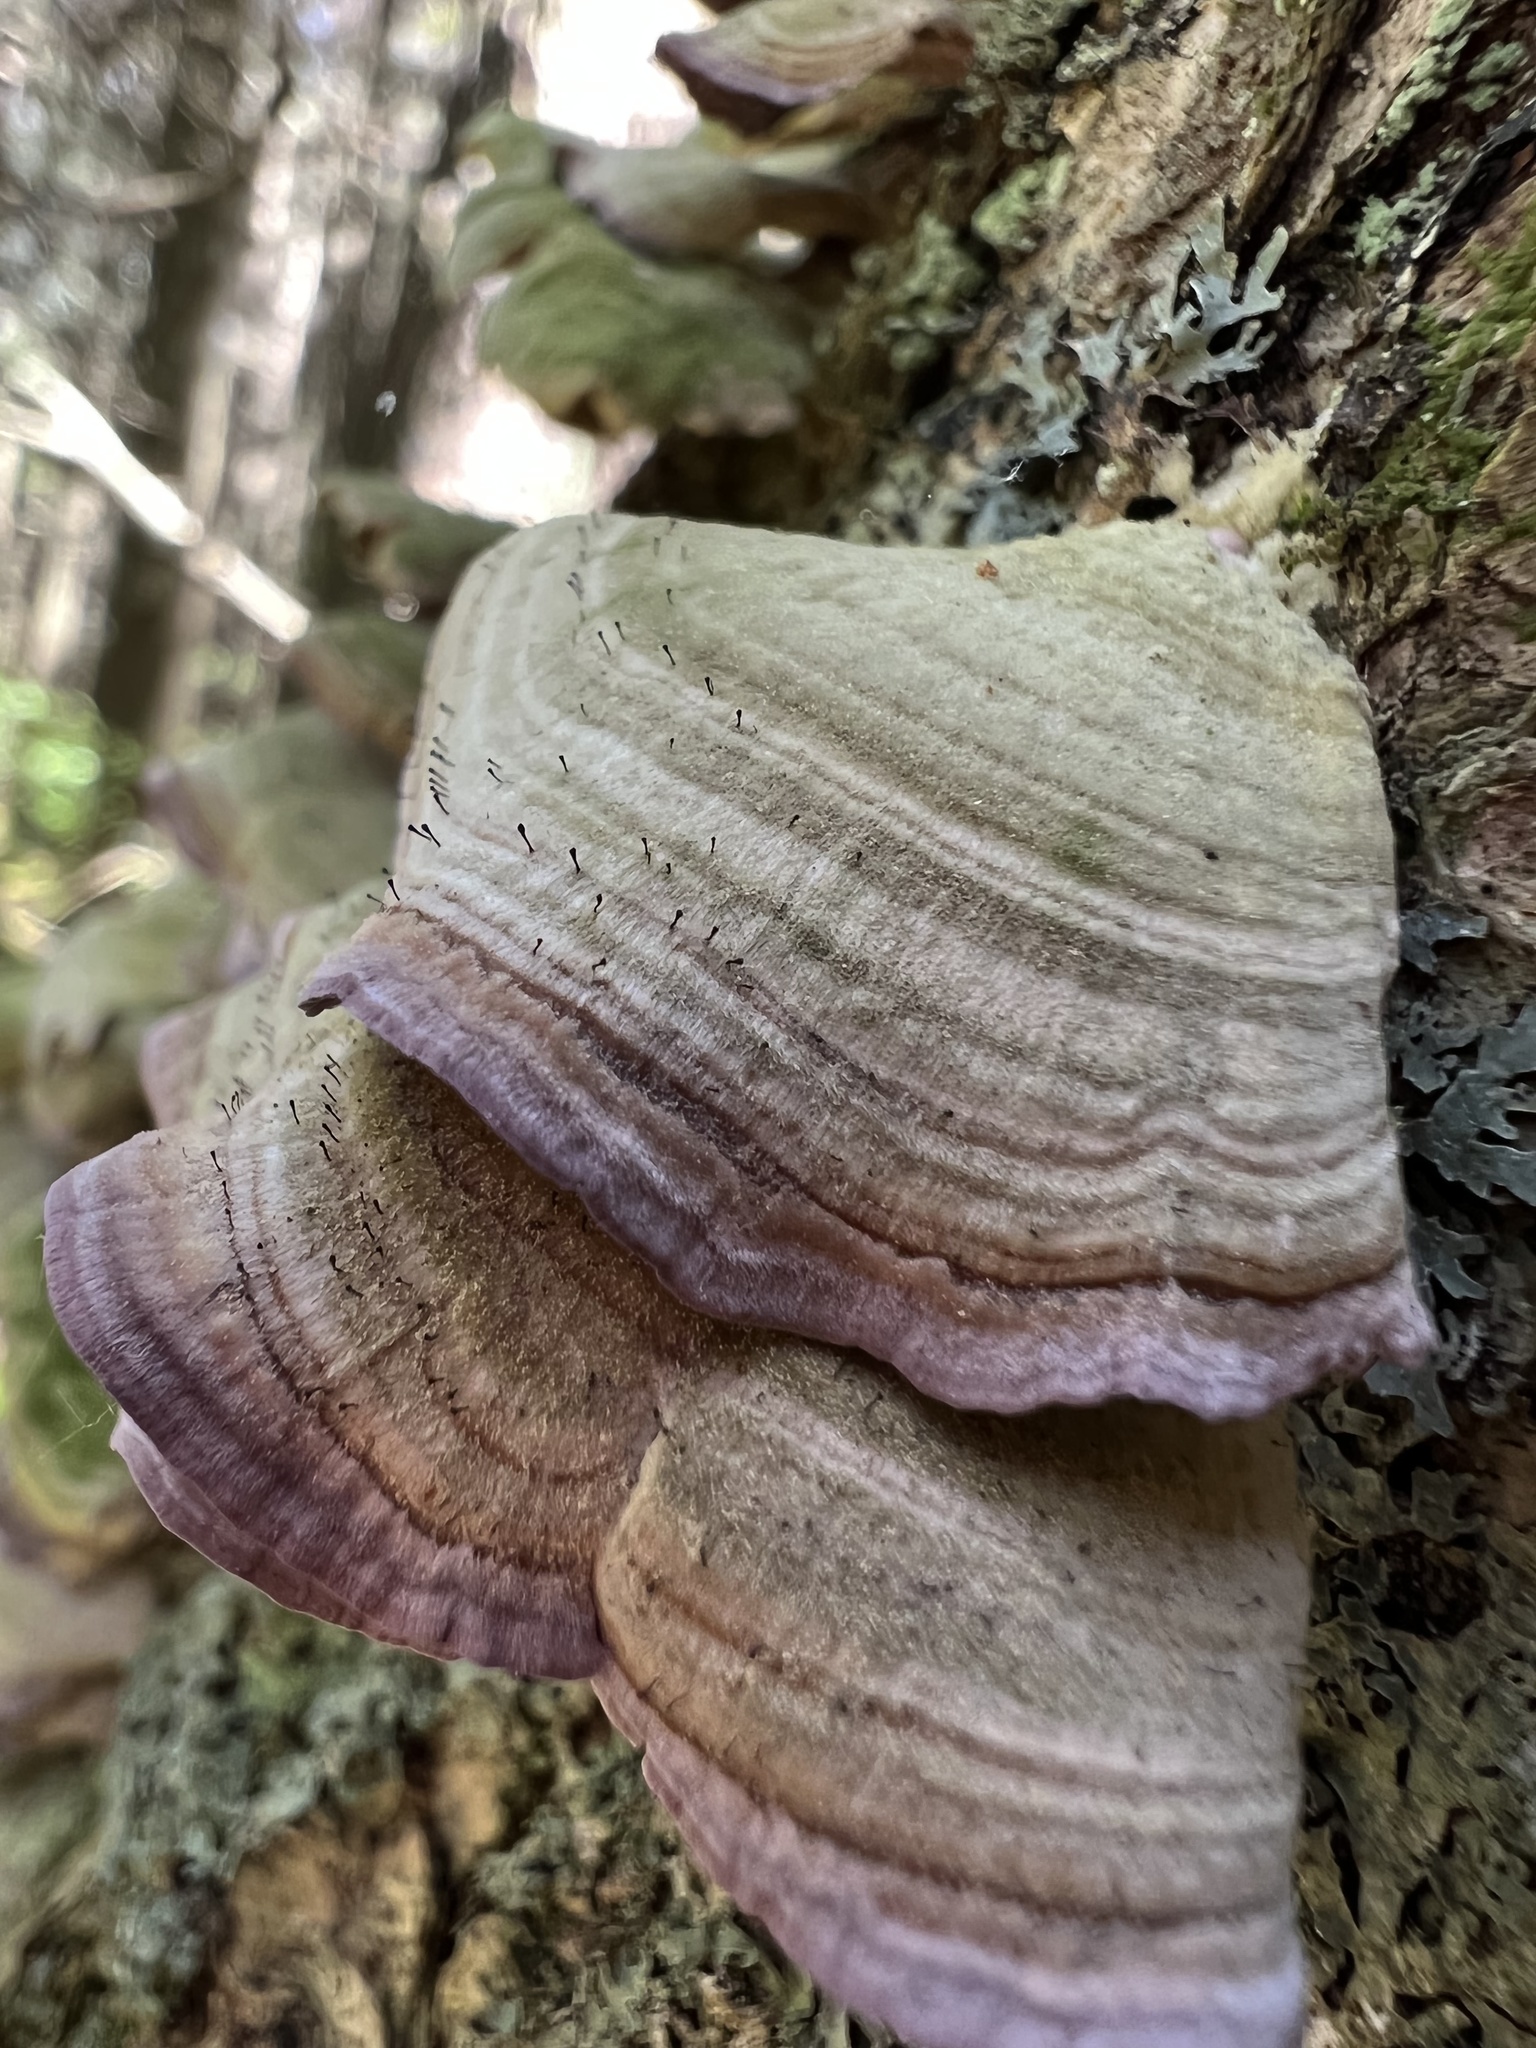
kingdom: Fungi
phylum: Ascomycota
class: Eurotiomycetes
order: Mycocaliciales
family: Mycocaliciaceae
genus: Phaeocalicium
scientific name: Phaeocalicium polyporaeum
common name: Fairy pins
